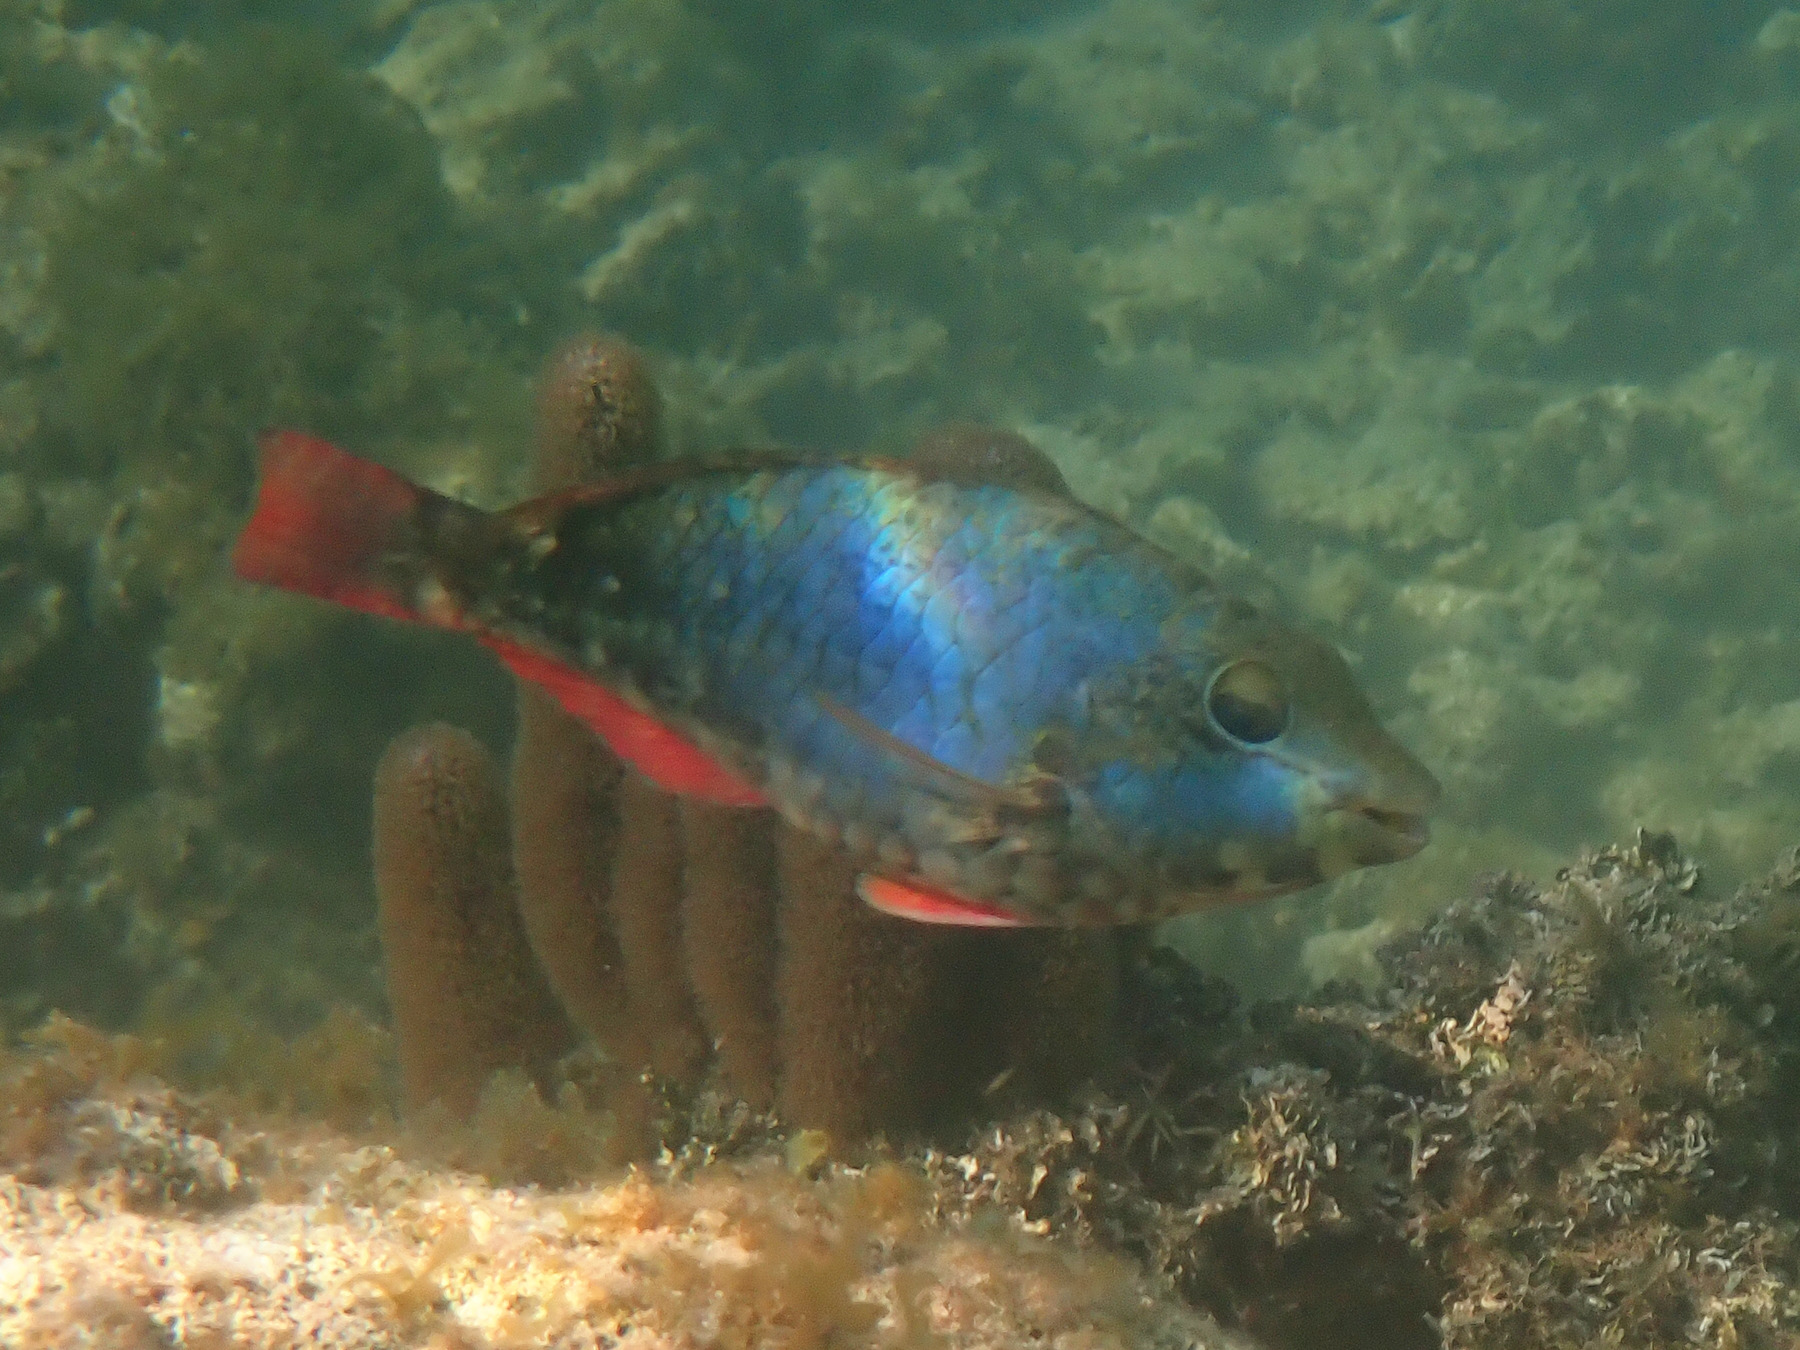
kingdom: Animalia
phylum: Chordata
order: Perciformes
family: Scaridae
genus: Sparisoma
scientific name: Sparisoma aurofrenatum
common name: Redband parrotfish
